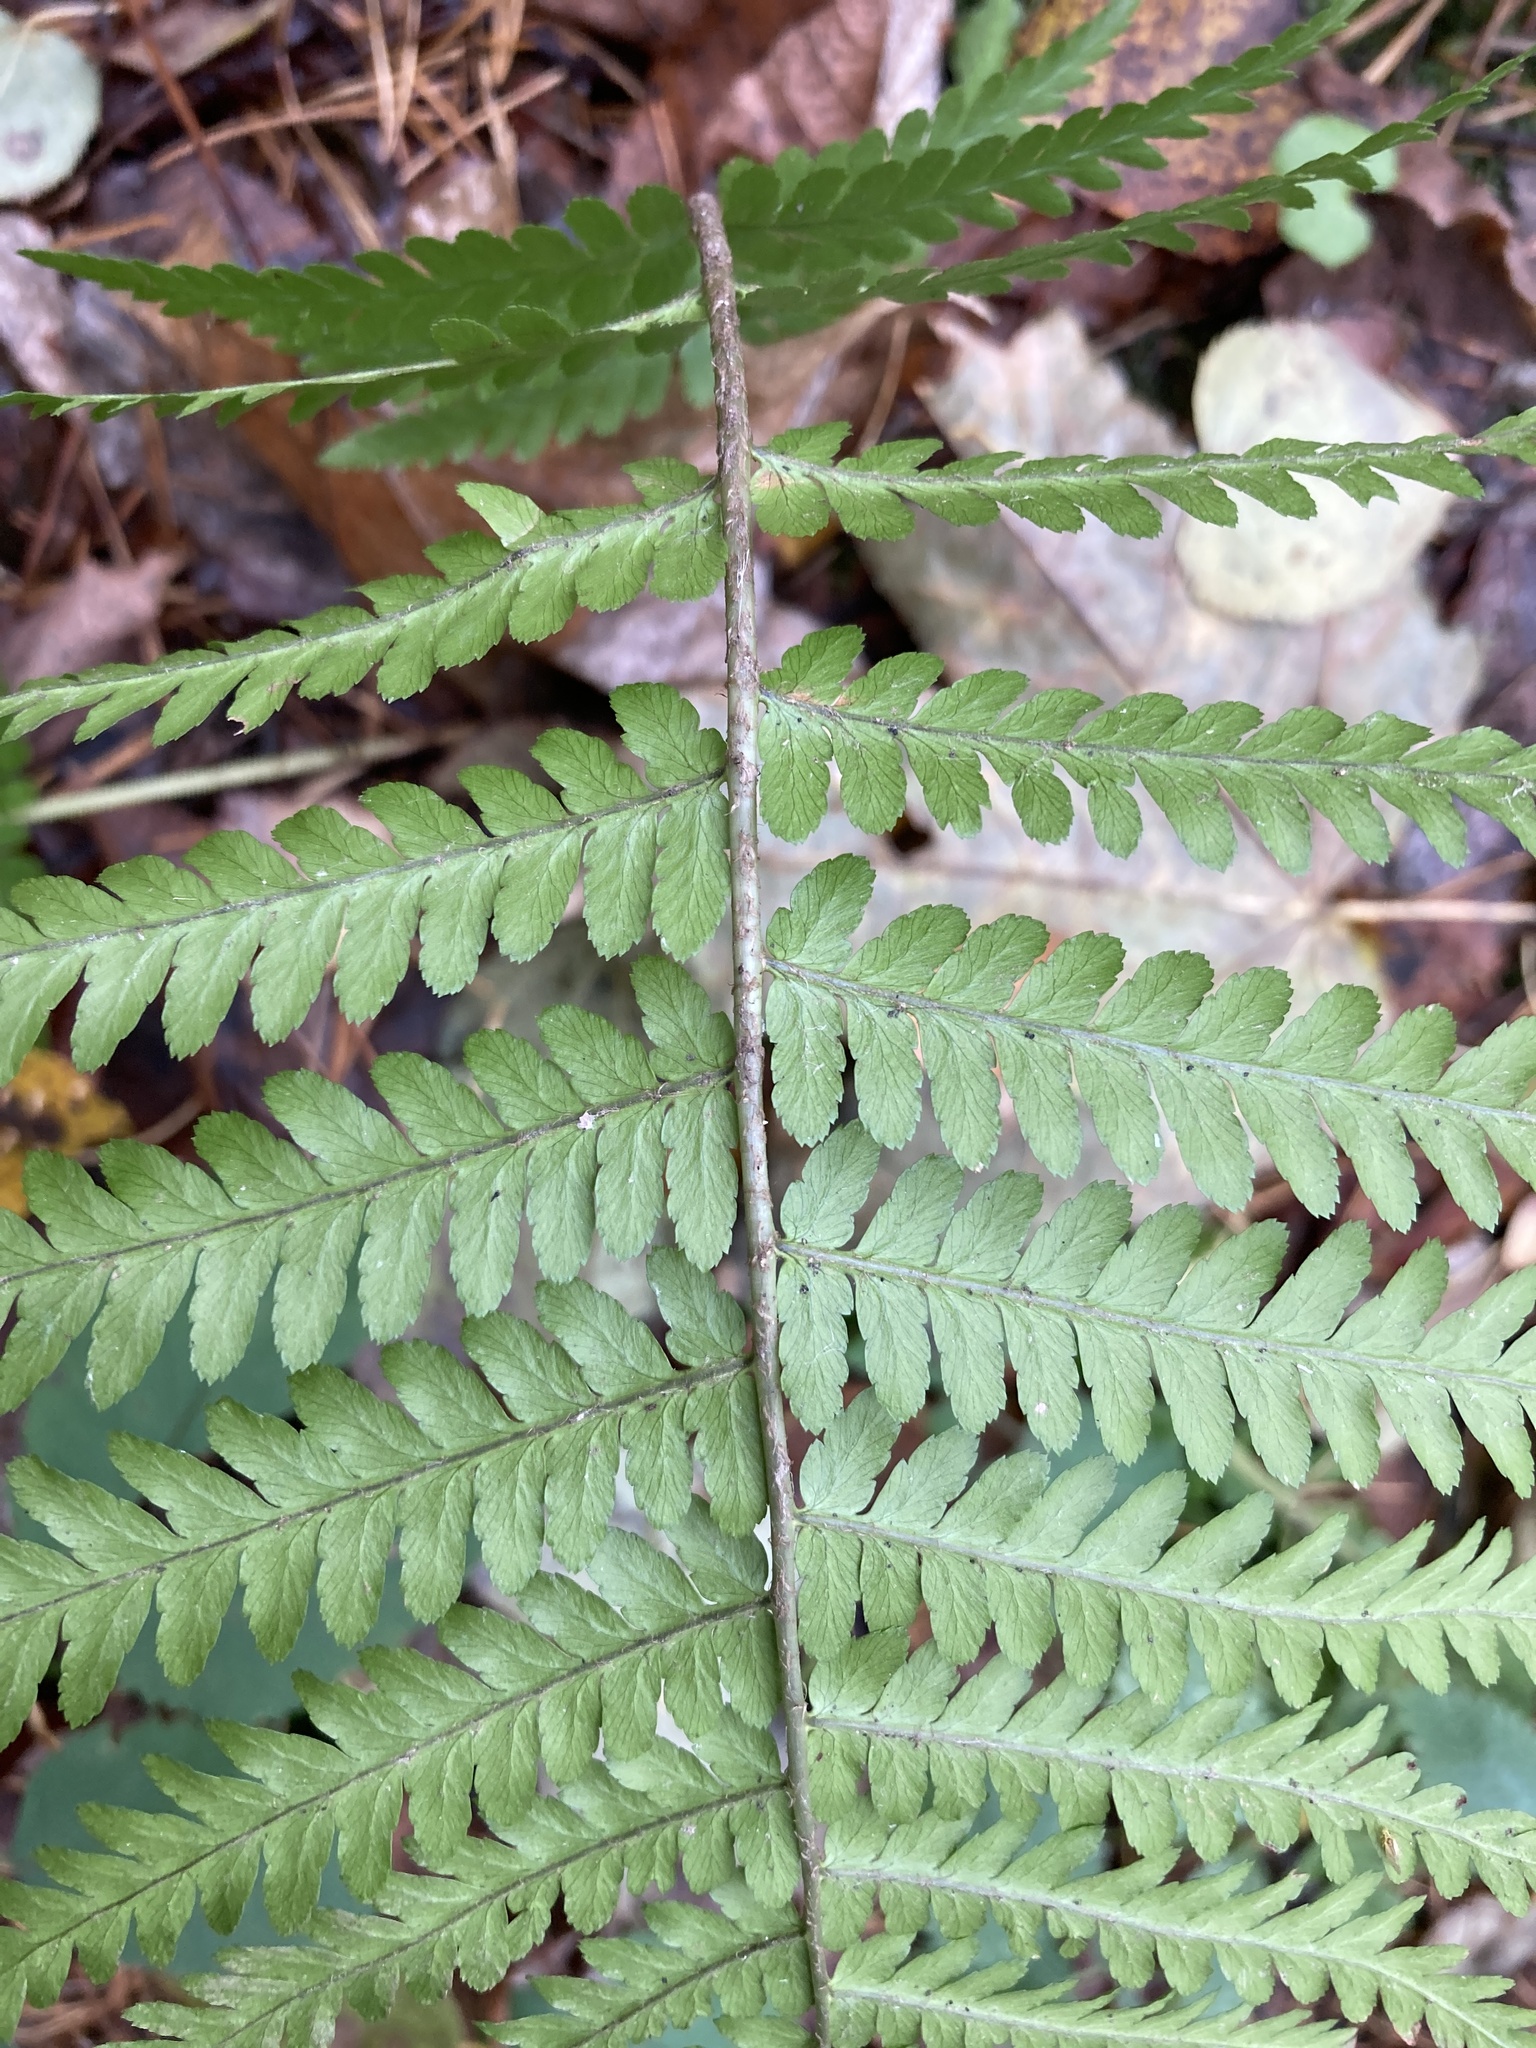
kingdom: Plantae
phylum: Tracheophyta
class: Polypodiopsida
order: Polypodiales
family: Dryopteridaceae
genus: Dryopteris
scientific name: Dryopteris filix-mas
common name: Male fern
